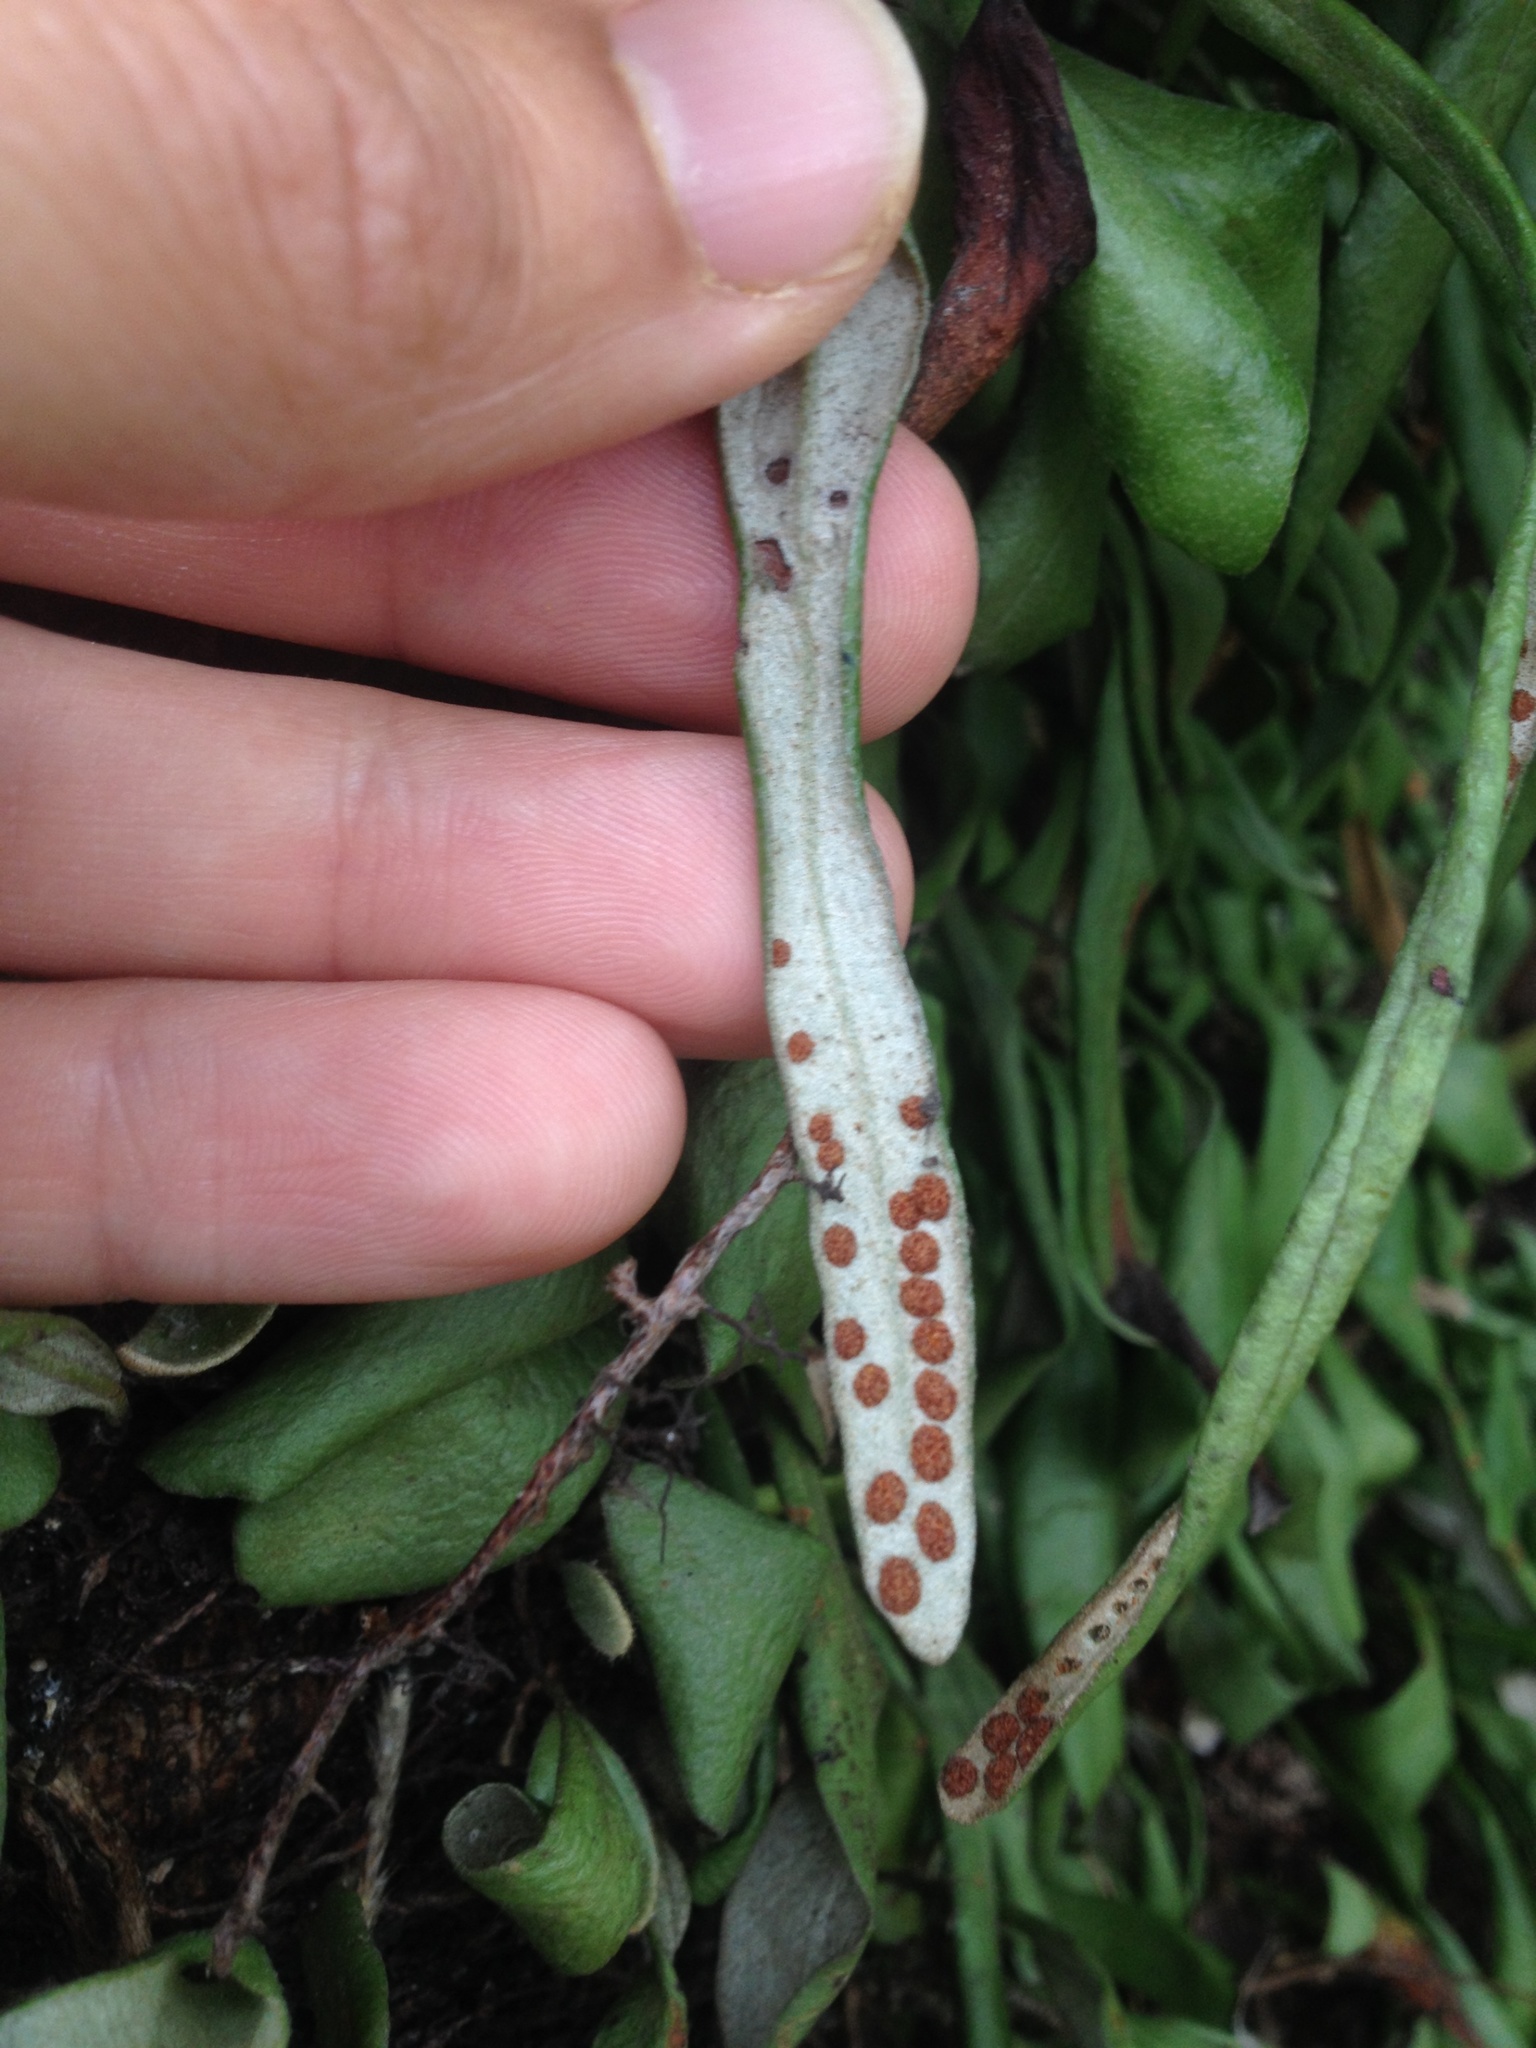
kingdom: Plantae
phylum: Tracheophyta
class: Polypodiopsida
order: Polypodiales
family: Polypodiaceae
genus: Pyrrosia
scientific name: Pyrrosia eleagnifolia
